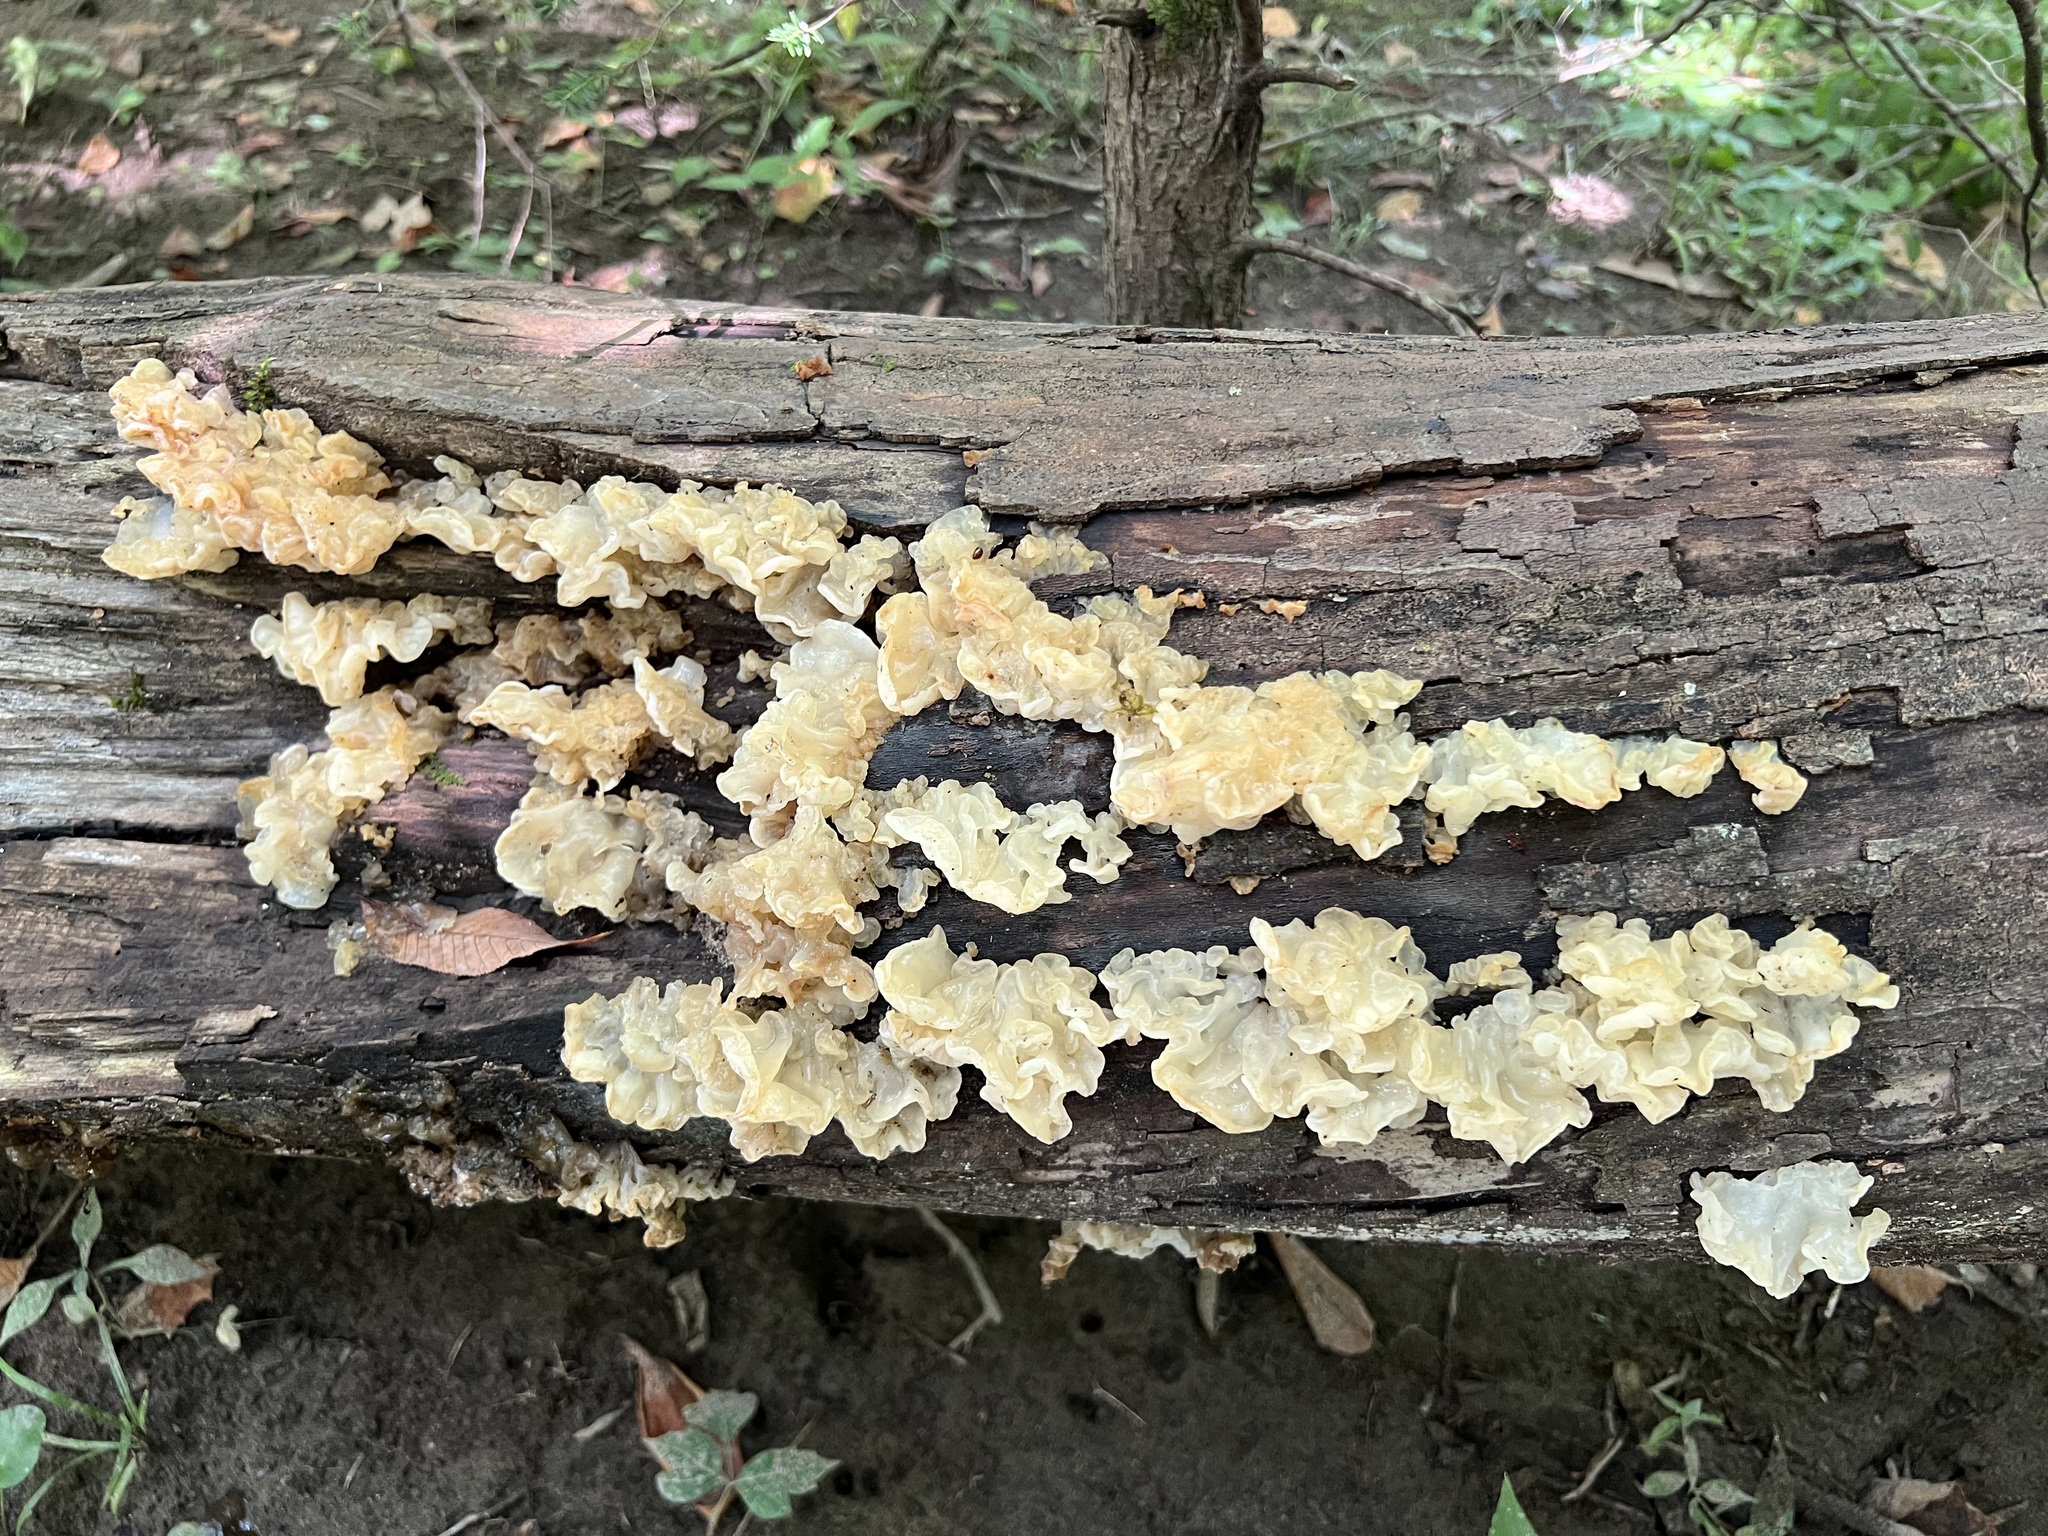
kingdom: Fungi
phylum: Basidiomycota
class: Agaricomycetes
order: Auriculariales
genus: Ductifera
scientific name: Ductifera pululahuana
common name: White jelly fungus
